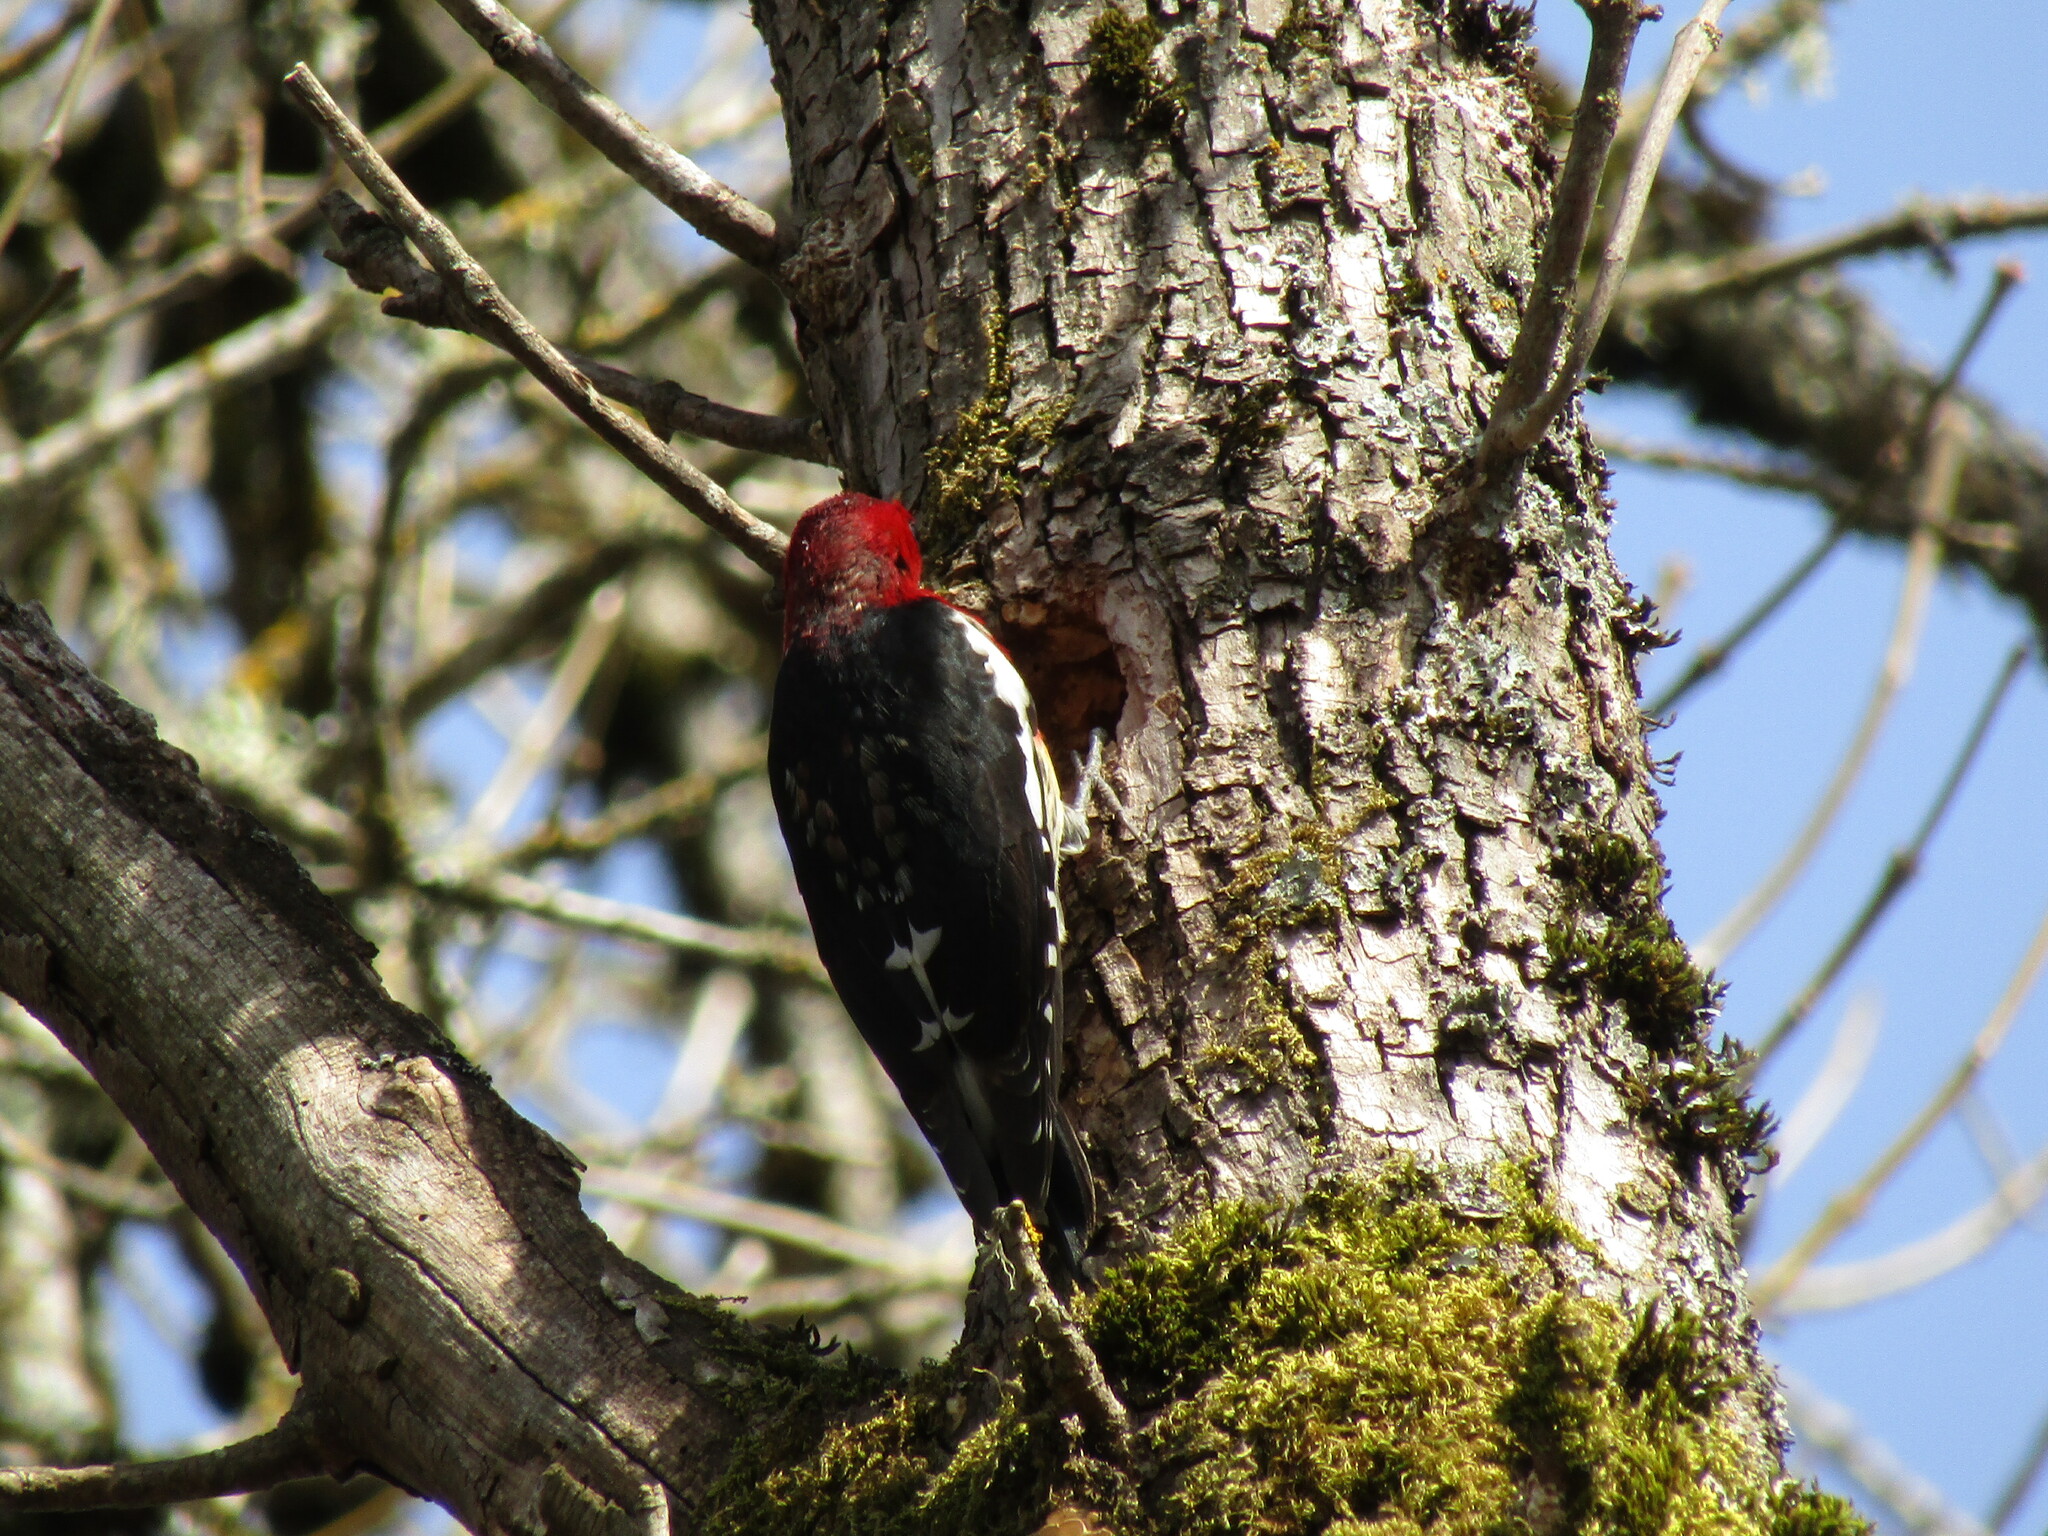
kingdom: Animalia
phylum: Chordata
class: Aves
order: Piciformes
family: Picidae
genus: Sphyrapicus
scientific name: Sphyrapicus ruber
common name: Red-breasted sapsucker
